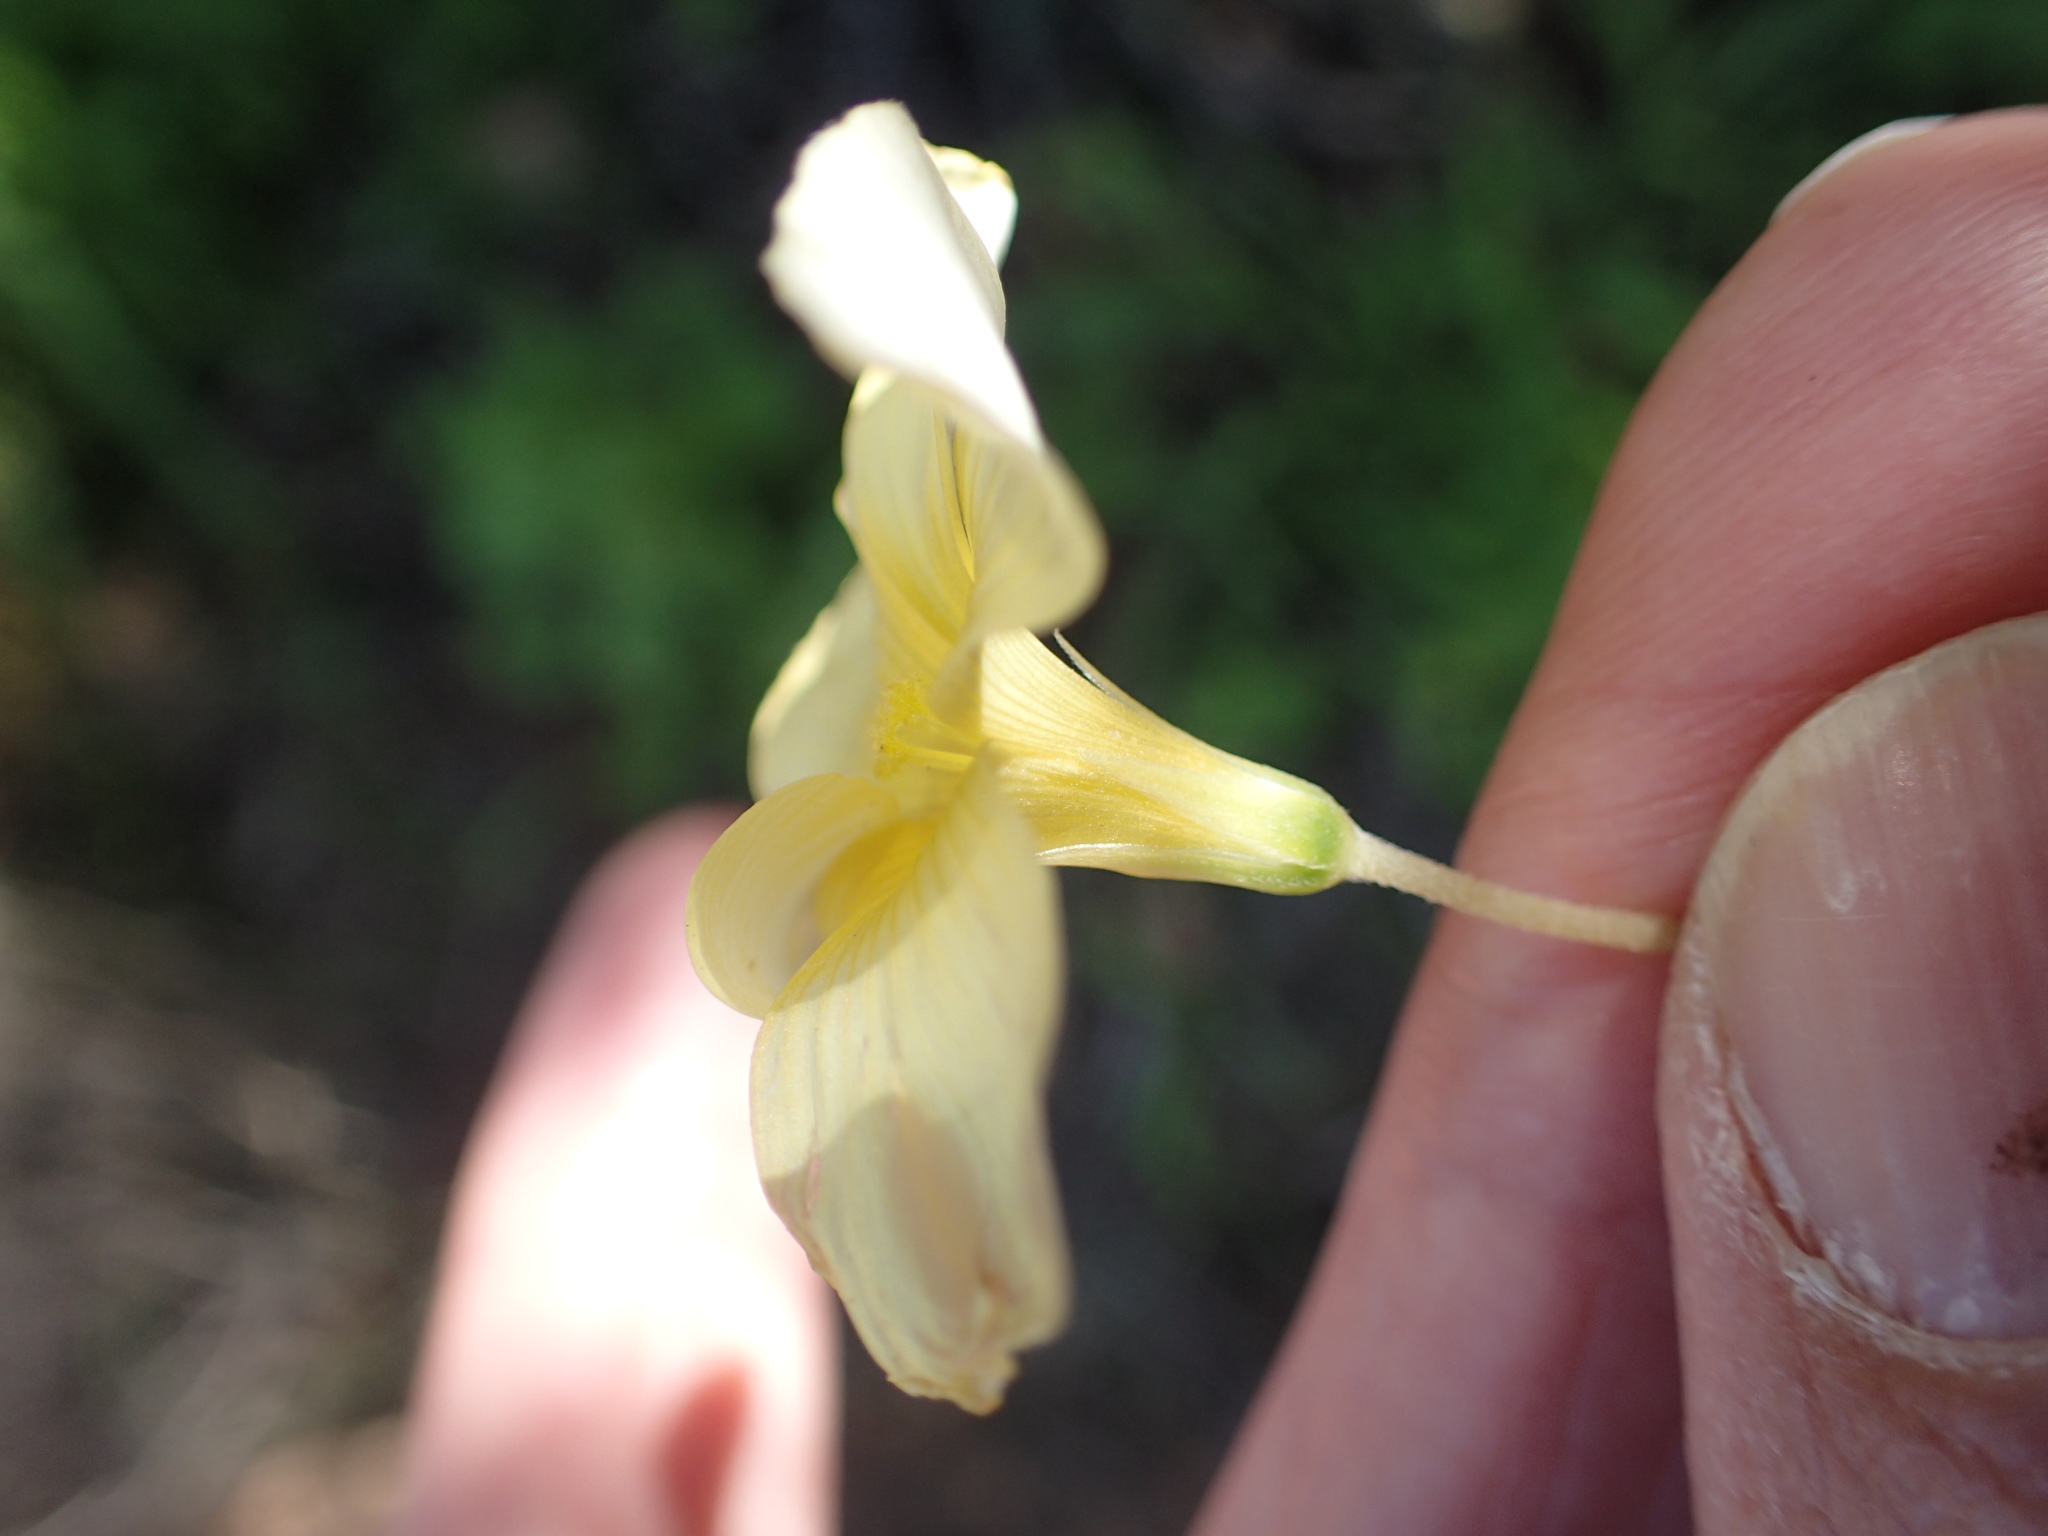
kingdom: Plantae
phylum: Tracheophyta
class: Magnoliopsida
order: Oxalidales
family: Oxalidaceae
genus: Oxalis
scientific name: Oxalis obtusa
